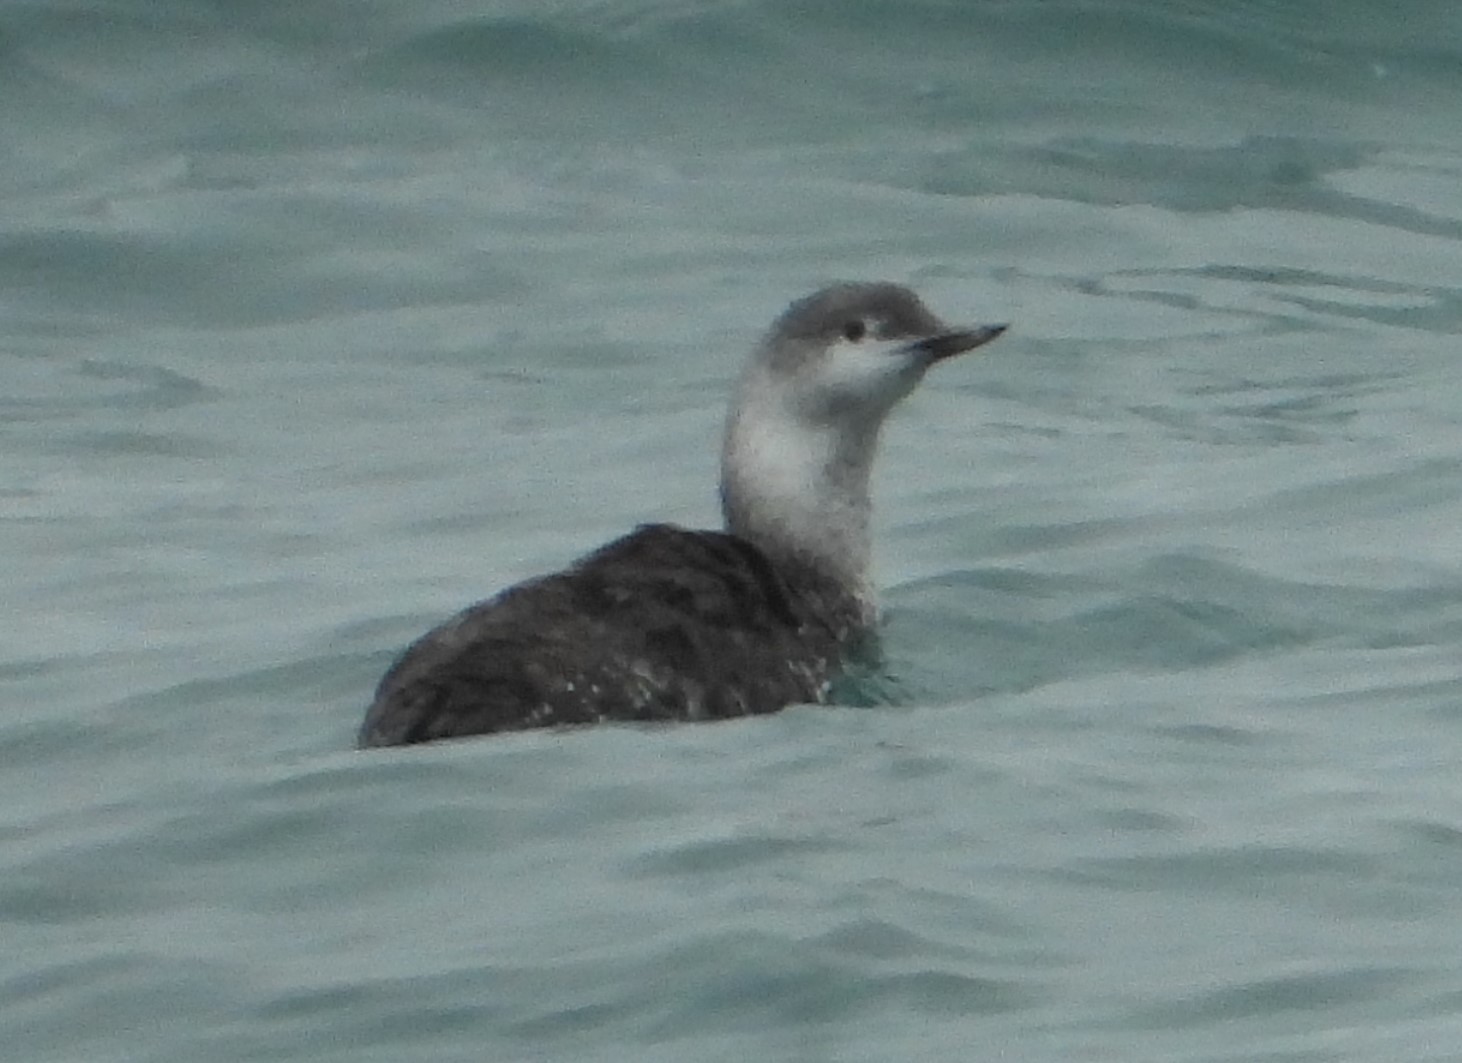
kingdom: Animalia
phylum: Chordata
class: Aves
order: Gaviiformes
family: Gaviidae
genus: Gavia
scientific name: Gavia stellata
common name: Red-throated loon
